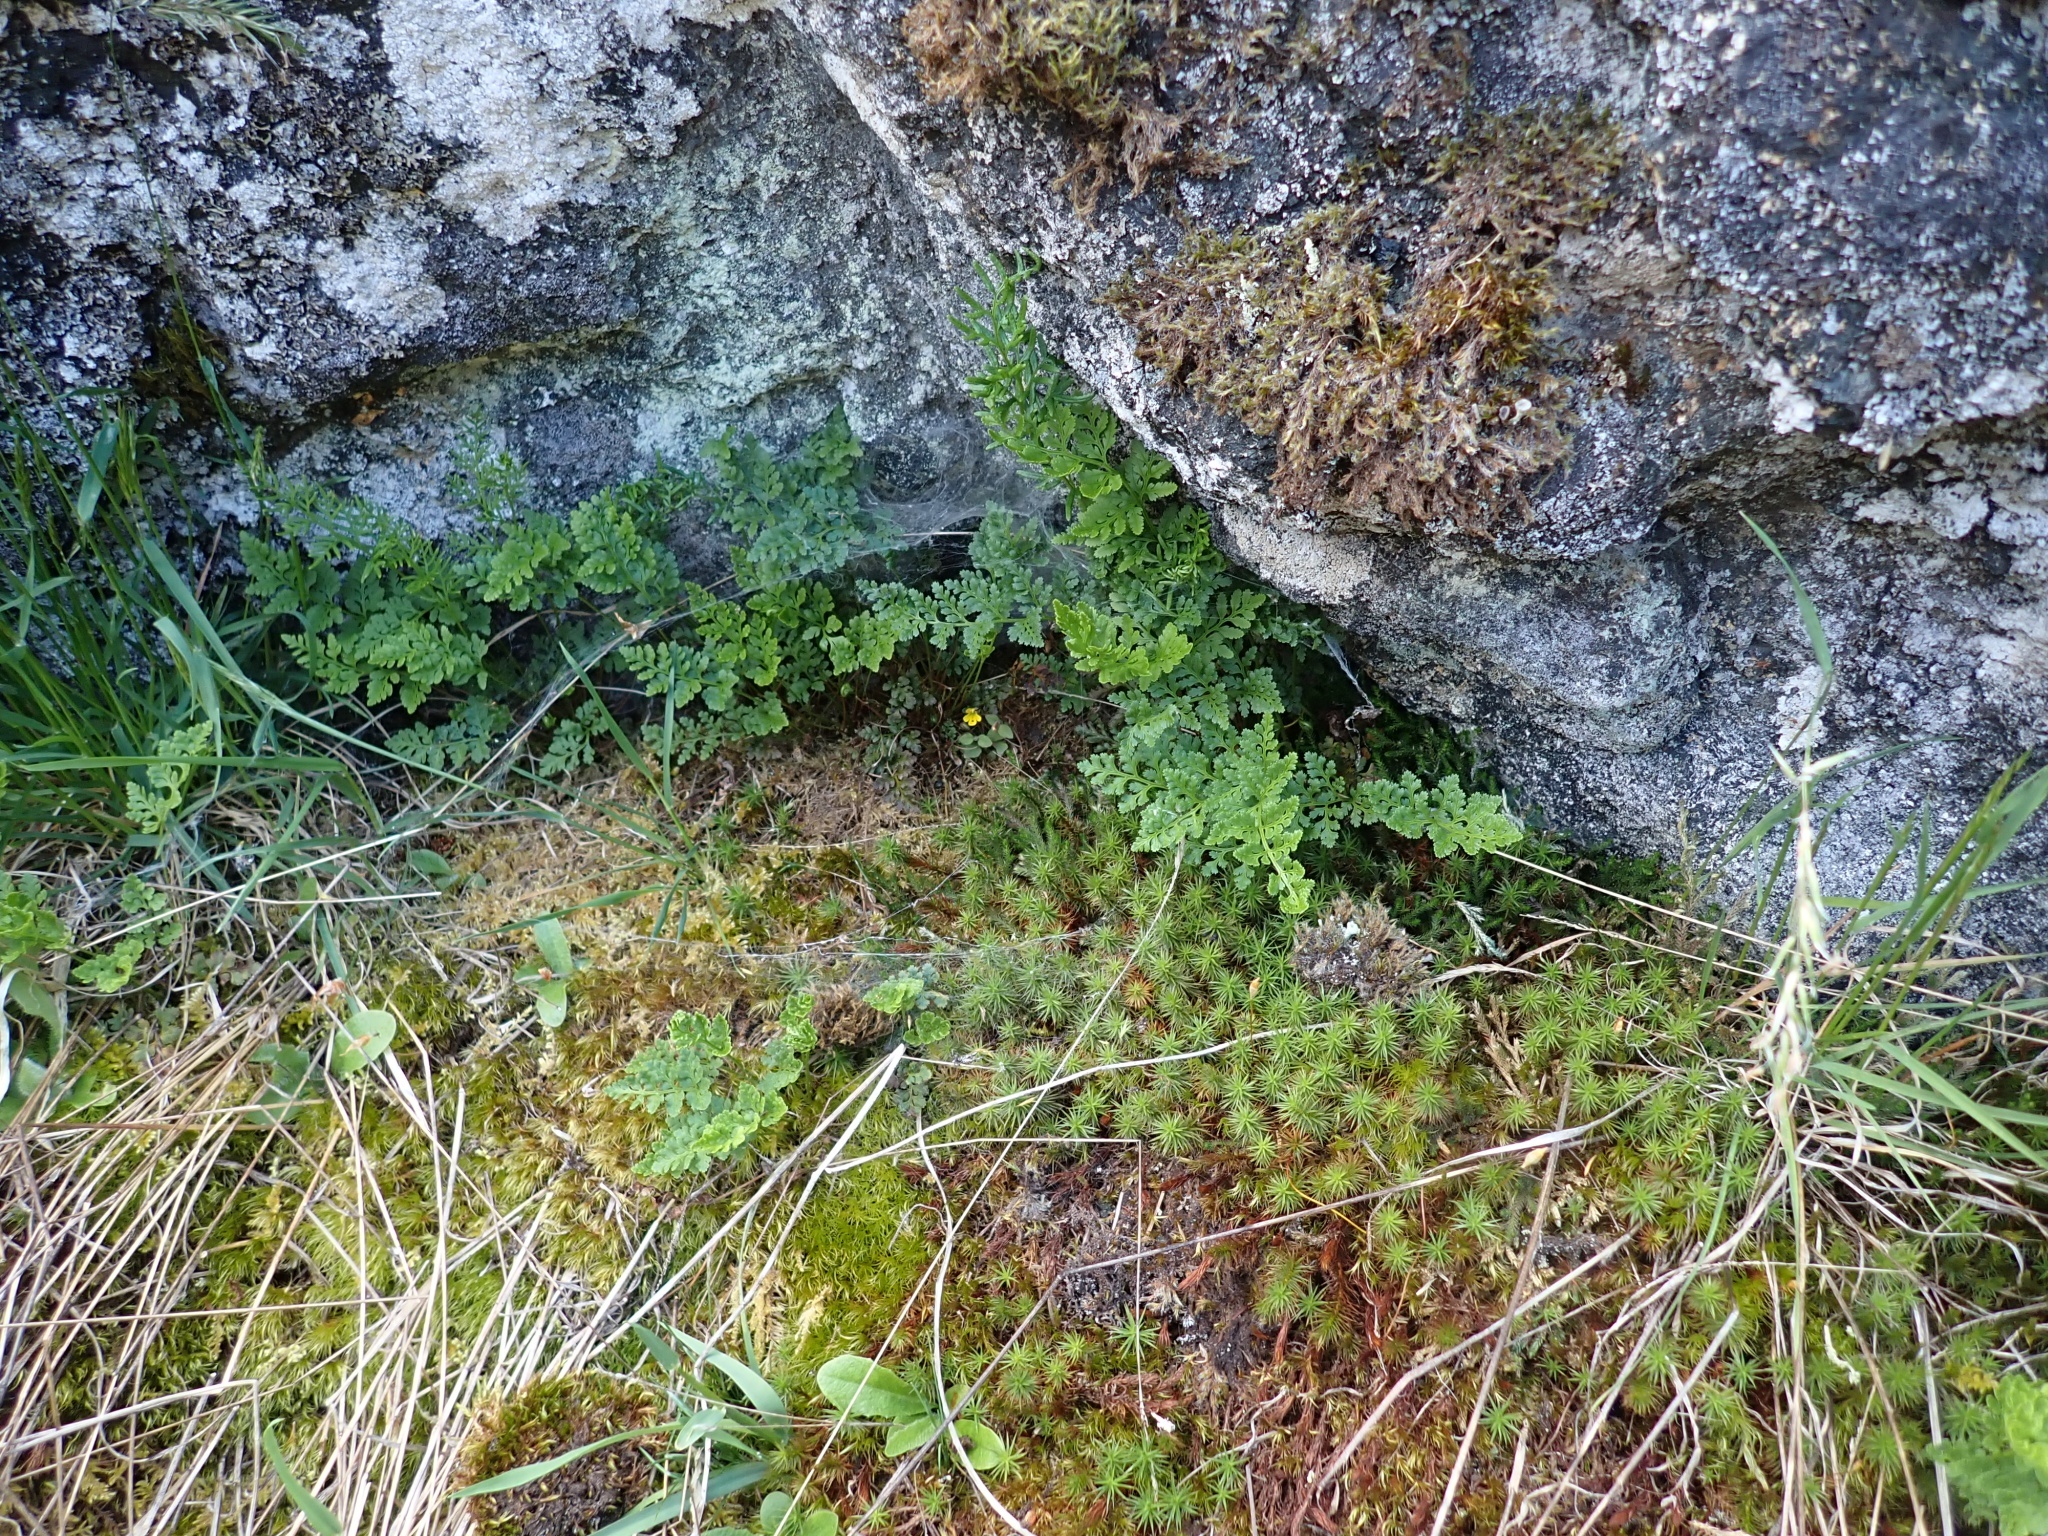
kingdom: Plantae
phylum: Tracheophyta
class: Magnoliopsida
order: Lamiales
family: Phrymaceae
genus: Erythranthe
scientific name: Erythranthe alsinoides
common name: Chickweed monkeyflower
